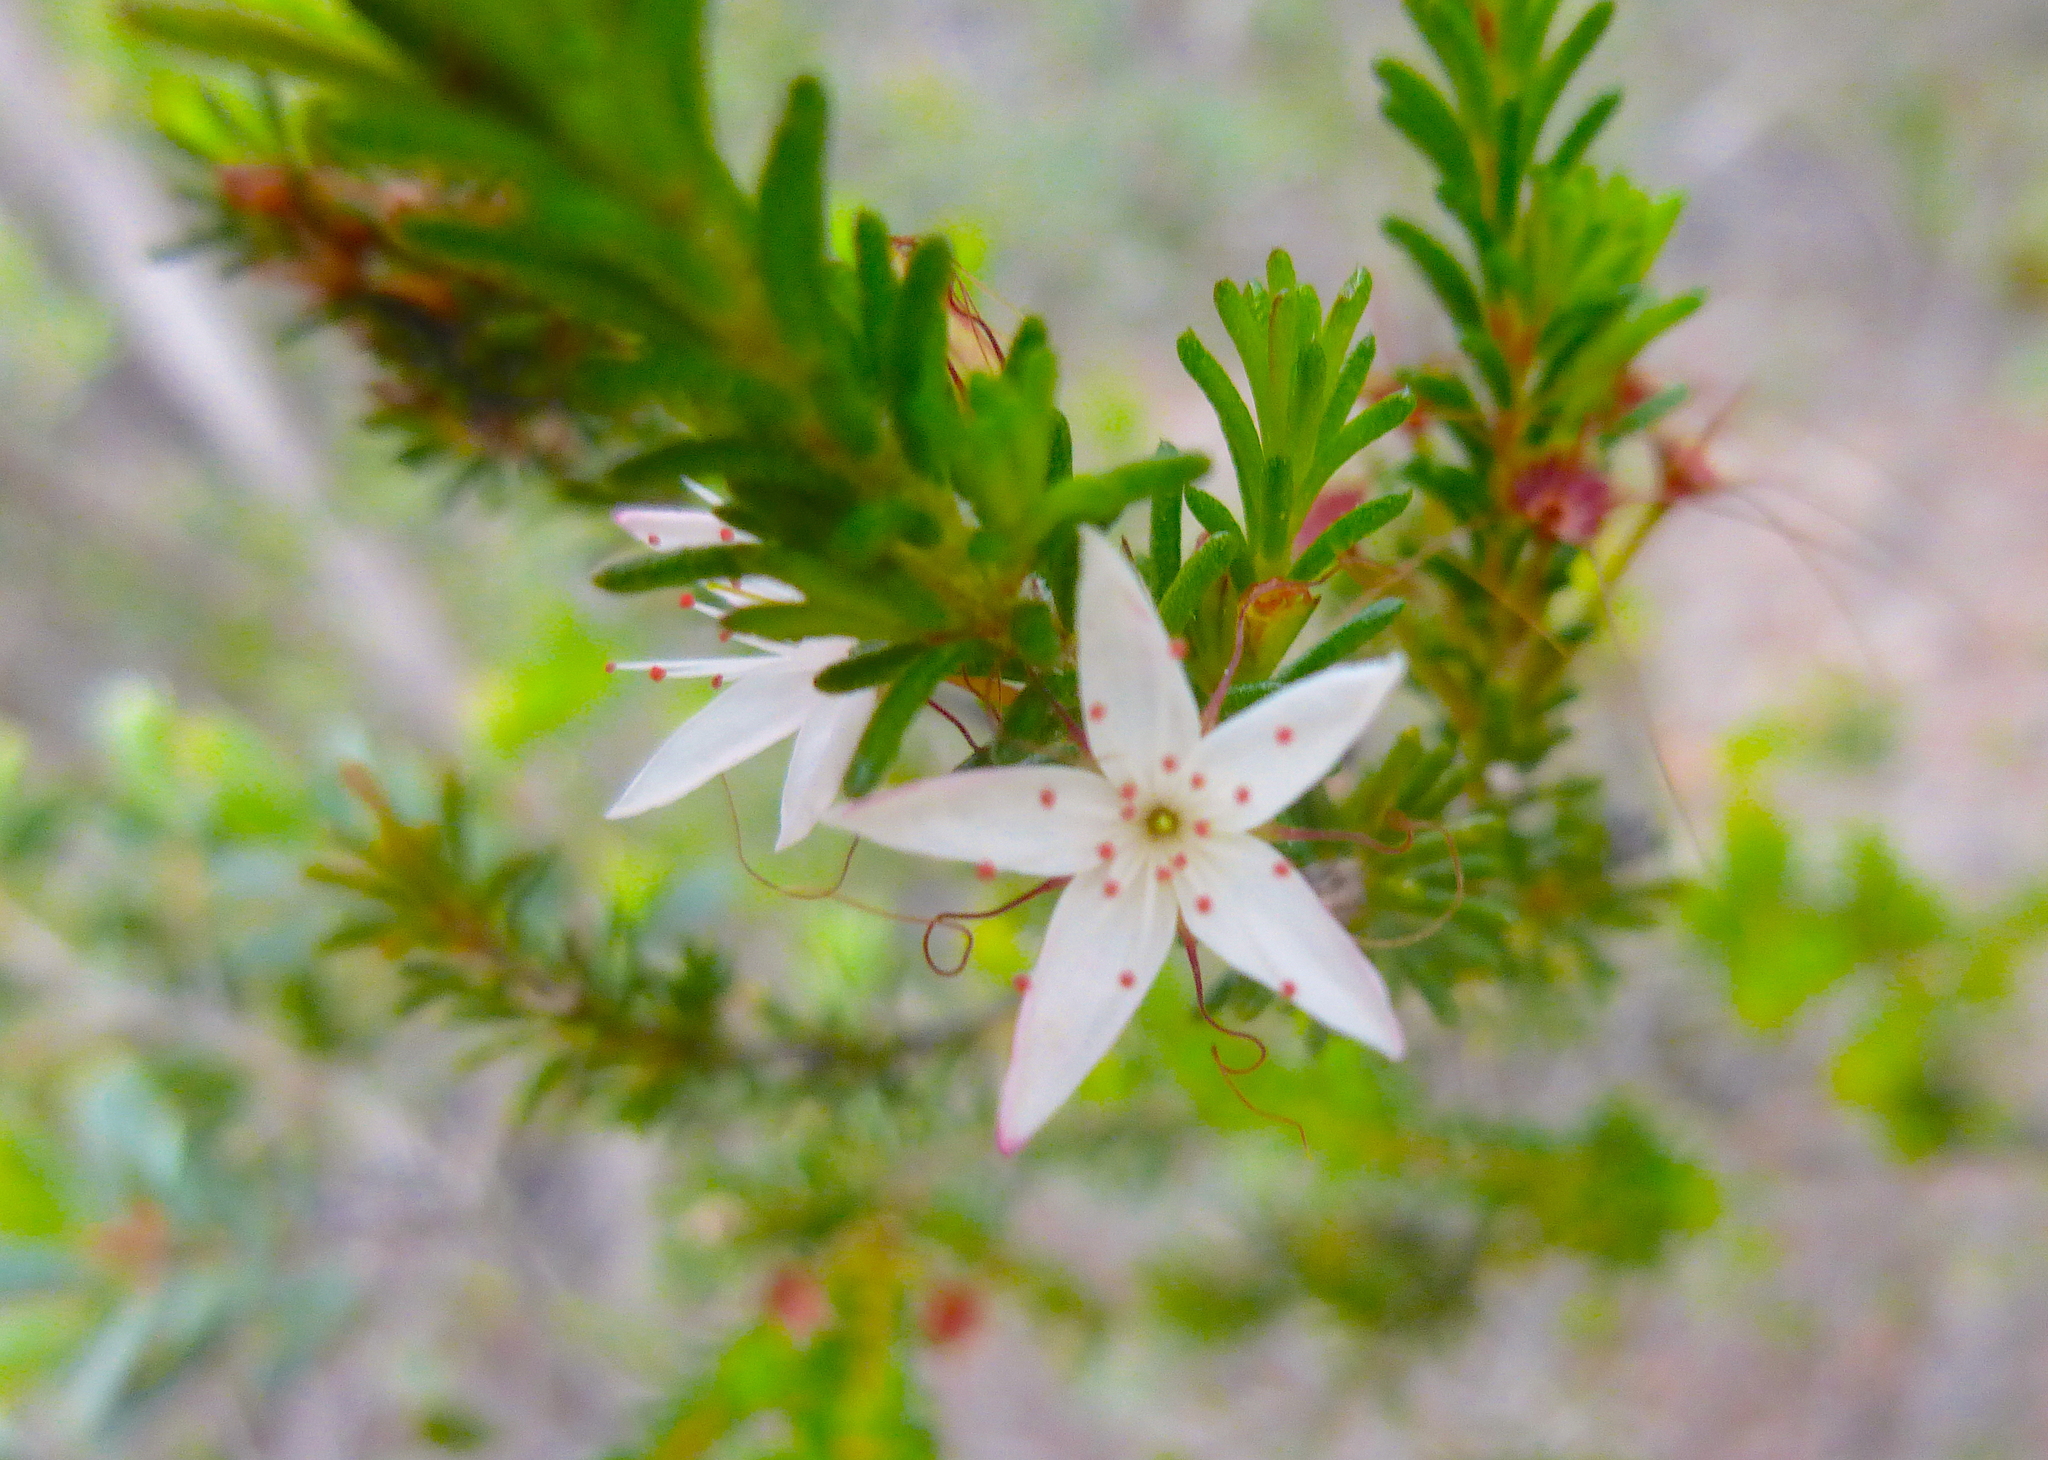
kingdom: Plantae
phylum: Tracheophyta
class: Magnoliopsida
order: Myrtales
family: Myrtaceae
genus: Calytrix
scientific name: Calytrix tetragona
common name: Common fringe myrtle
